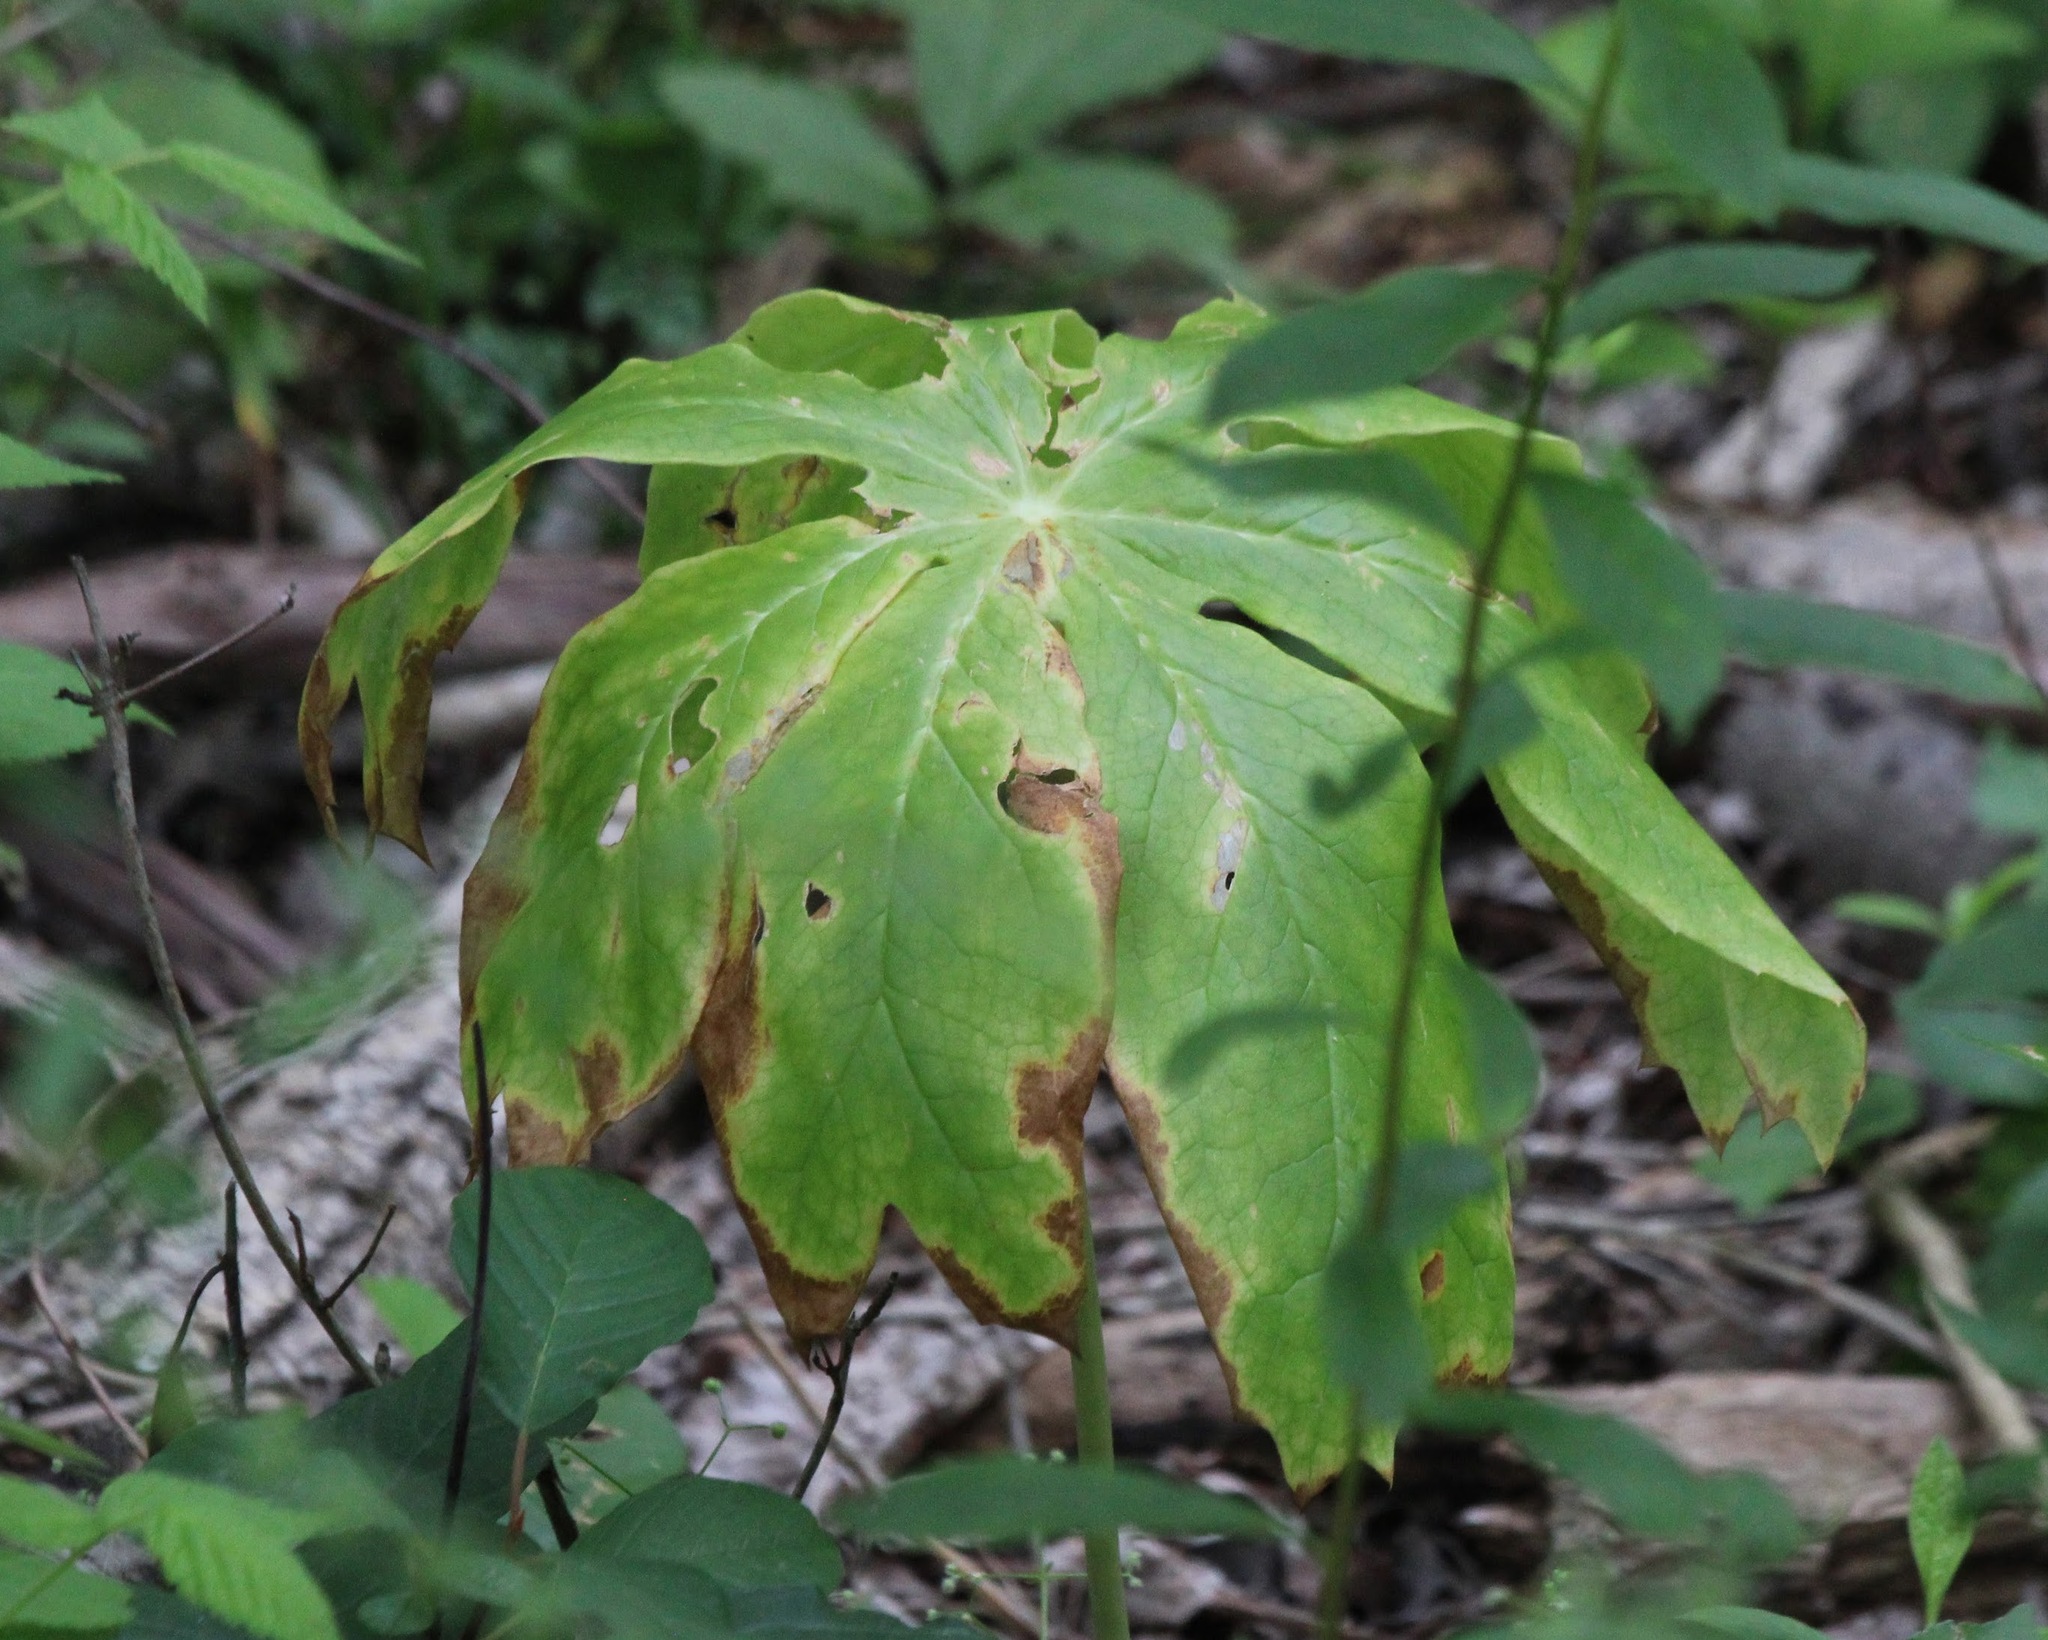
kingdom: Plantae
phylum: Tracheophyta
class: Magnoliopsida
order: Ranunculales
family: Berberidaceae
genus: Podophyllum
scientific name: Podophyllum peltatum
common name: Wild mandrake
